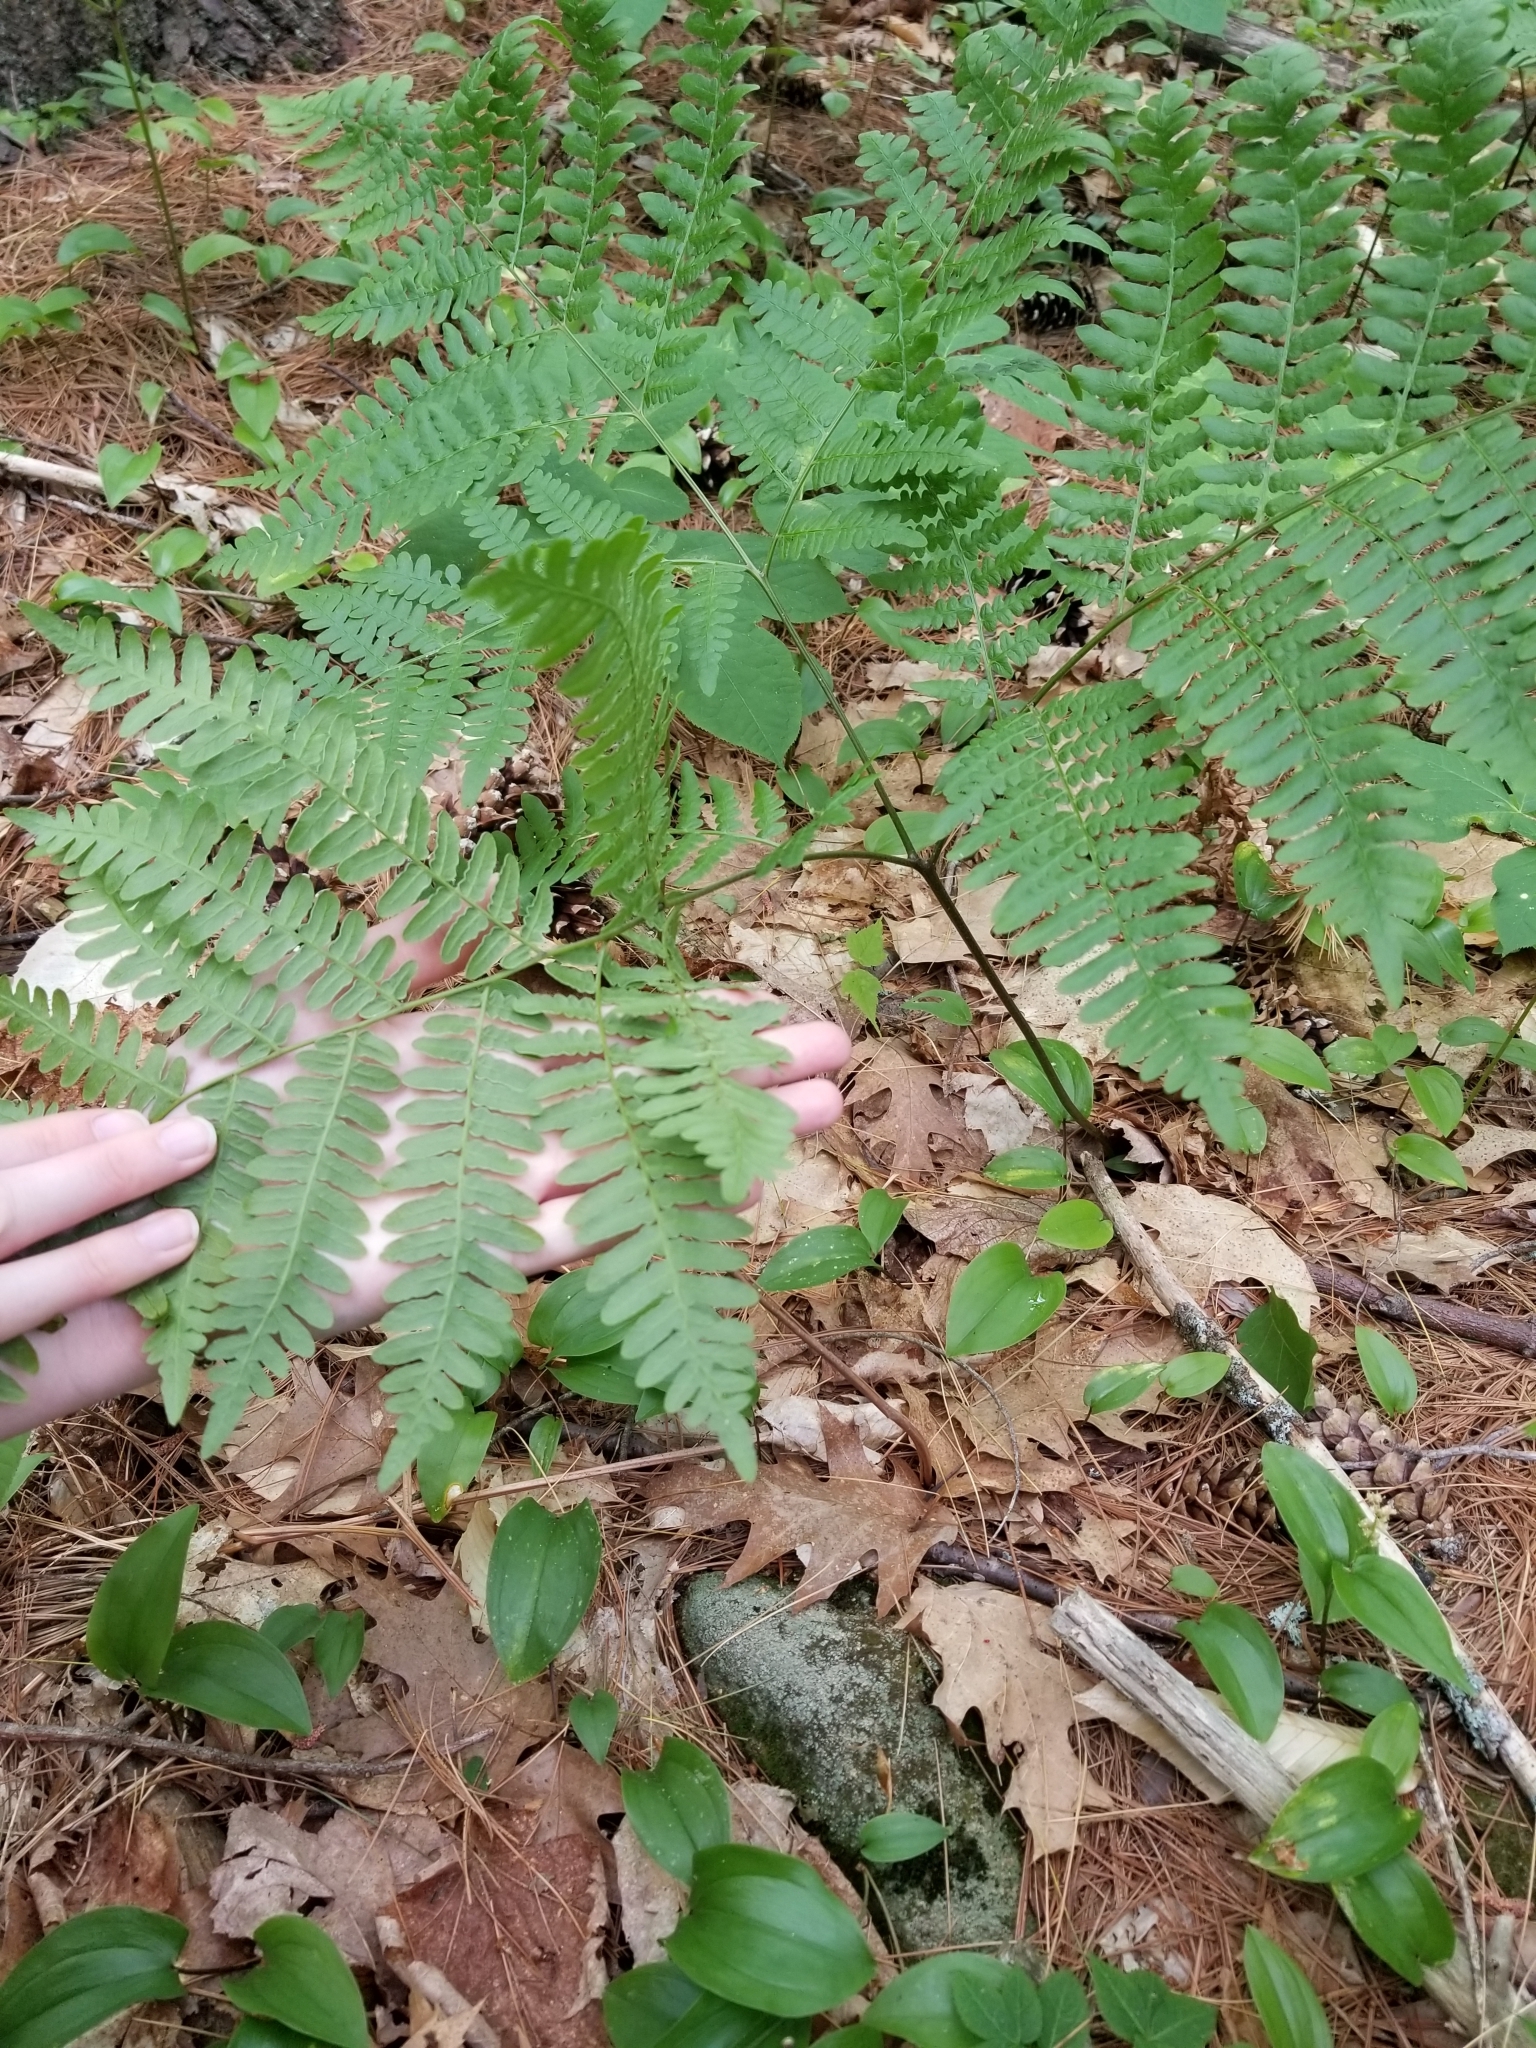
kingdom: Plantae
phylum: Tracheophyta
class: Polypodiopsida
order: Polypodiales
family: Dennstaedtiaceae
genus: Pteridium
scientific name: Pteridium aquilinum
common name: Bracken
